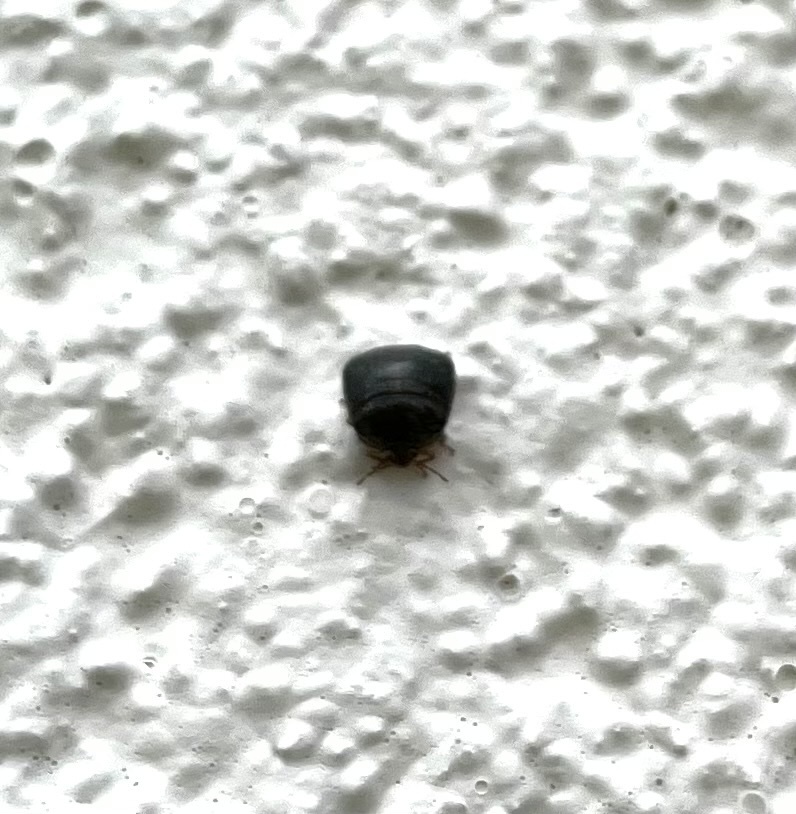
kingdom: Animalia
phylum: Arthropoda
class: Insecta
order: Hemiptera
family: Plataspidae
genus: Megacopta
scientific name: Megacopta cribraria
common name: Bean plataspid
